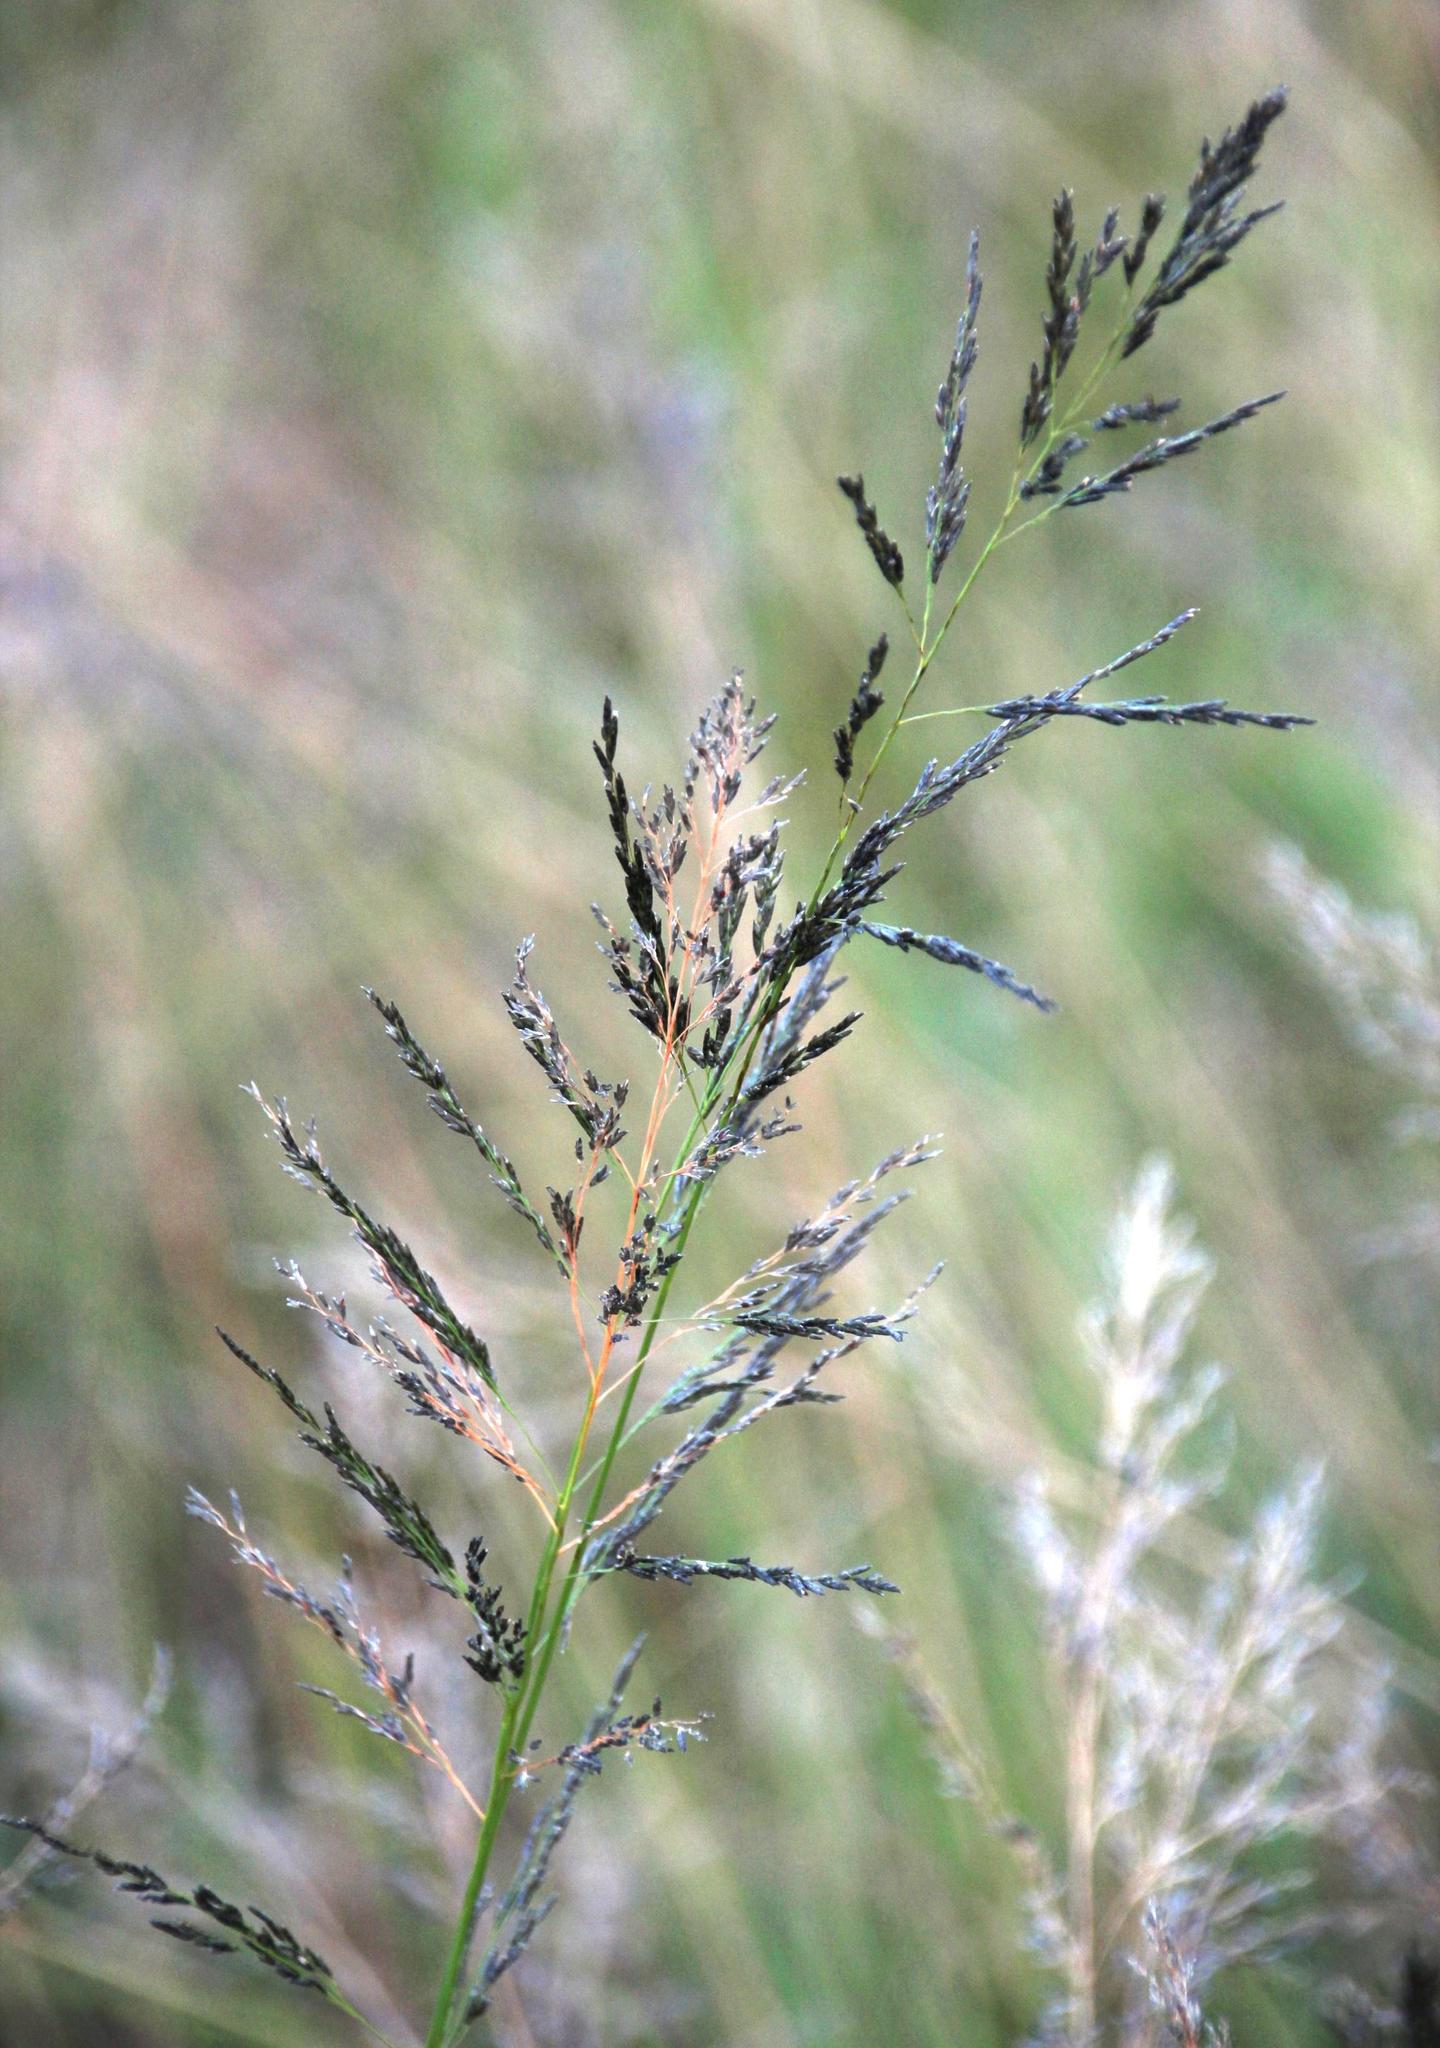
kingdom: Plantae
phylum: Tracheophyta
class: Liliopsida
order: Poales
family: Poaceae
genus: Eragrostis
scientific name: Eragrostis curvula
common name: African love-grass
